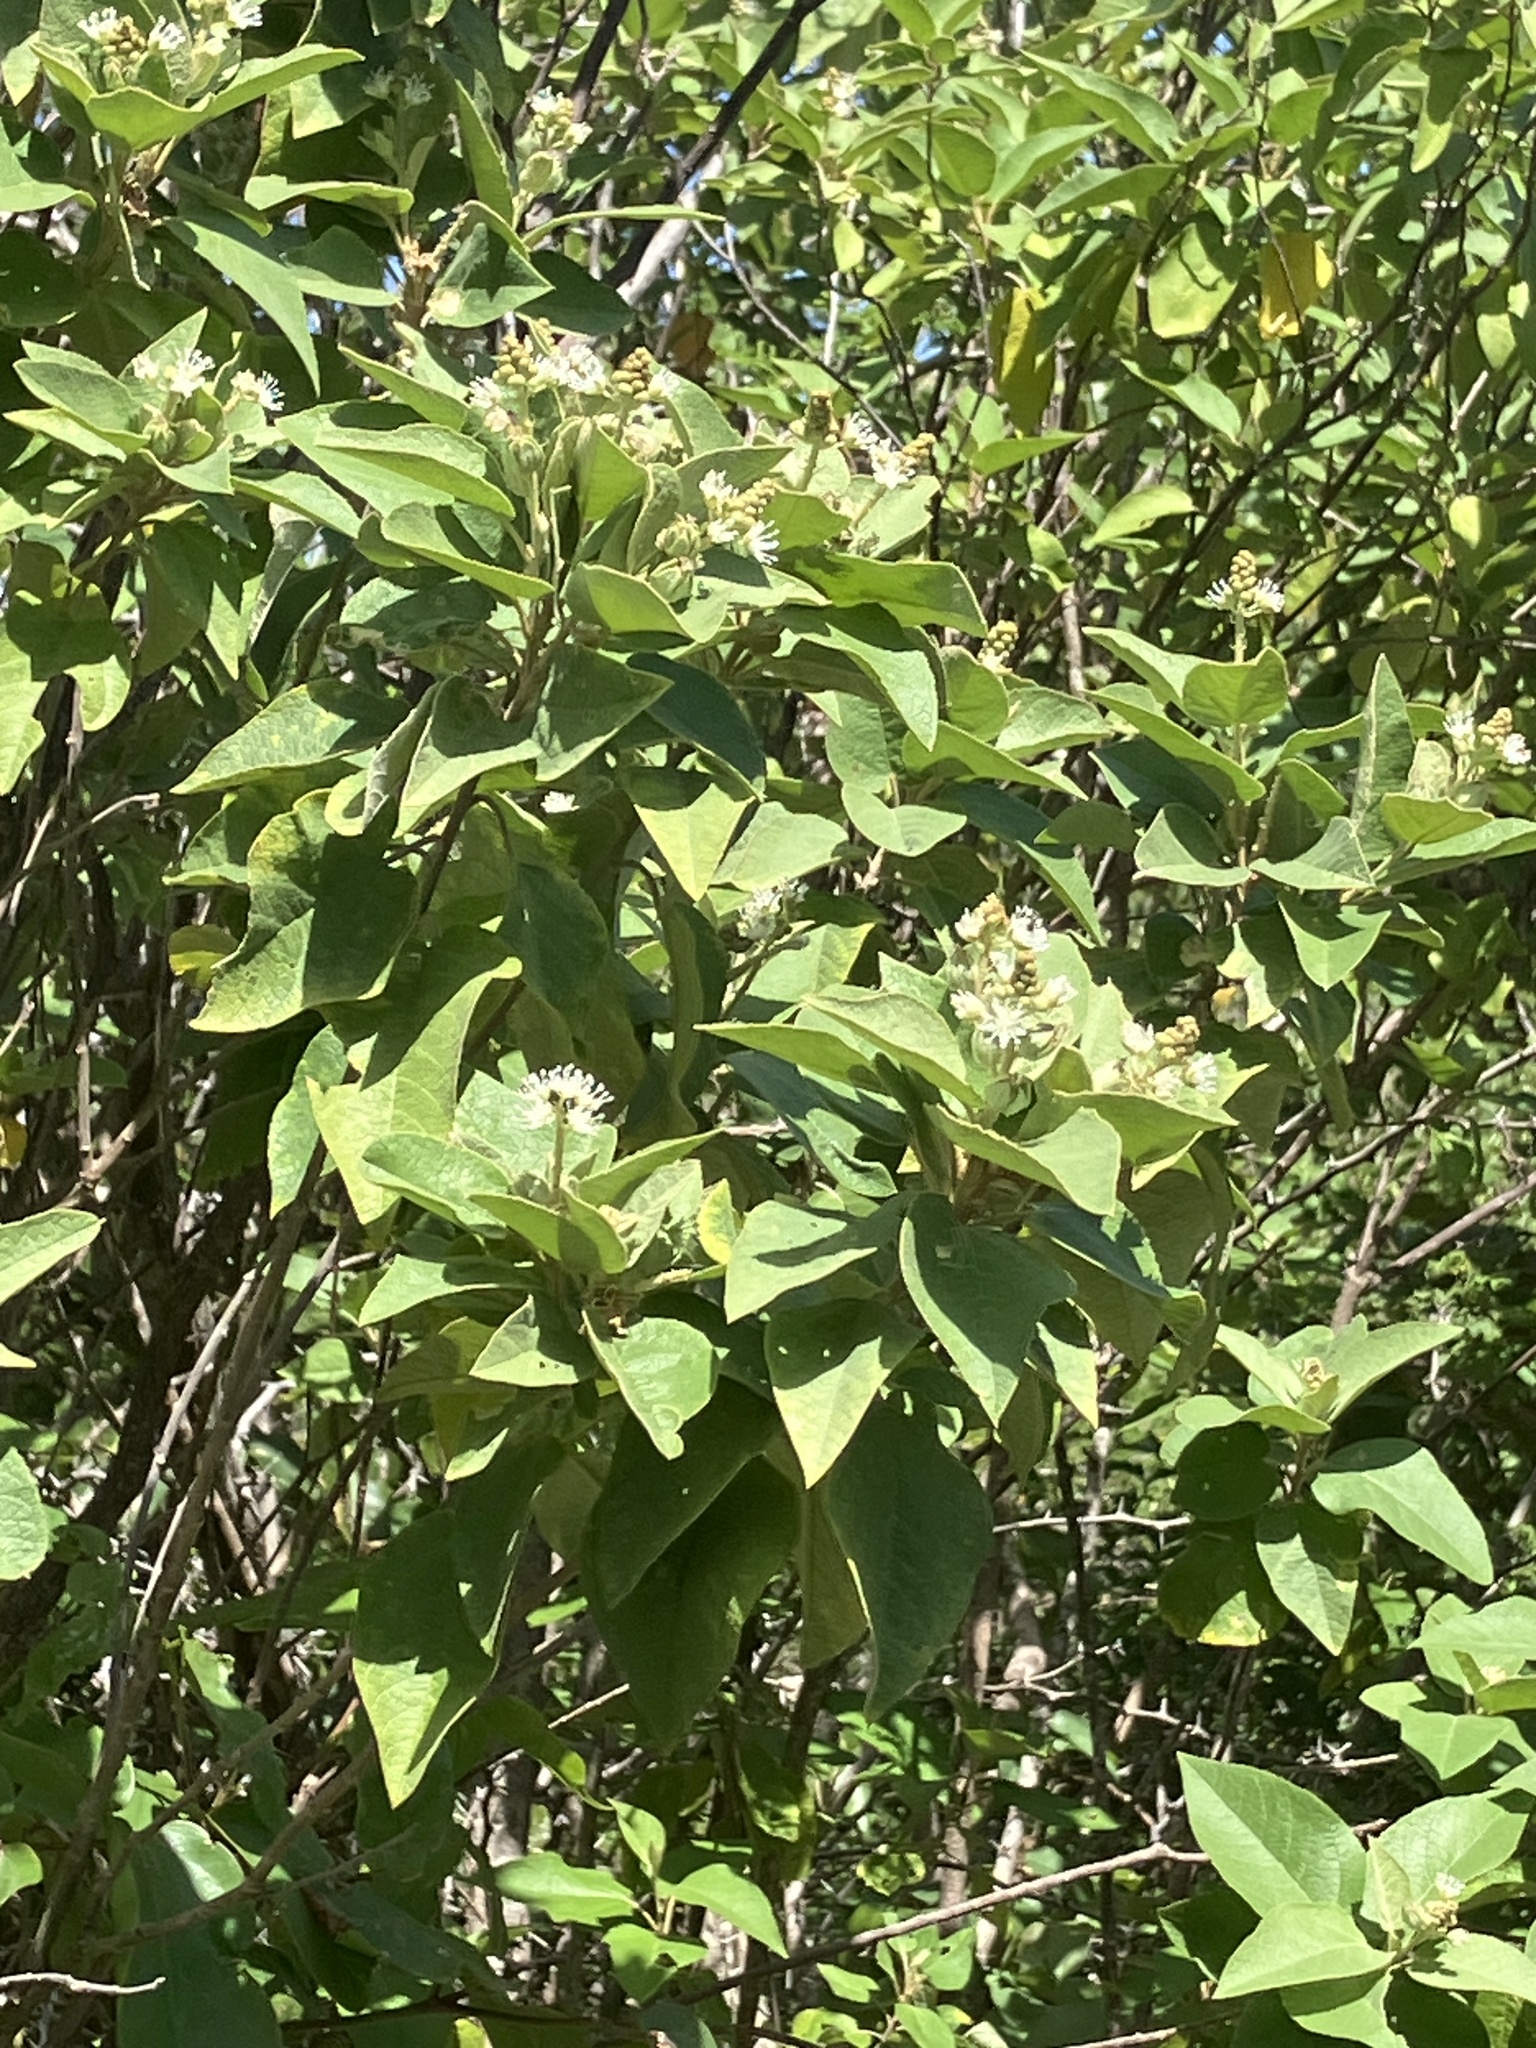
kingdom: Plantae
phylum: Tracheophyta
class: Magnoliopsida
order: Malpighiales
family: Euphorbiaceae
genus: Croton
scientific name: Croton astroites
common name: Wild marrow
